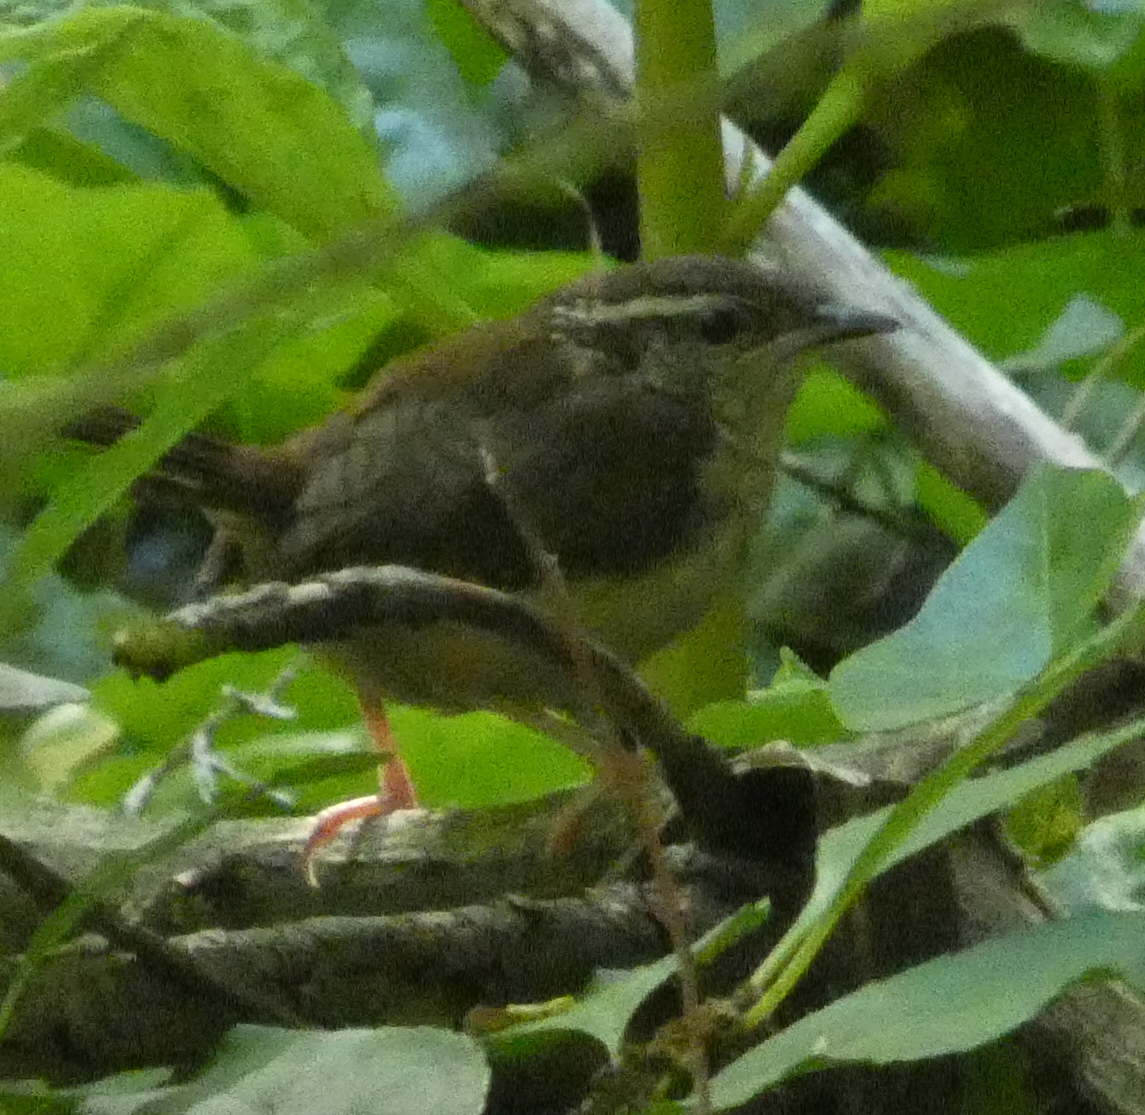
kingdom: Animalia
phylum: Chordata
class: Aves
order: Passeriformes
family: Troglodytidae
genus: Thryothorus
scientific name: Thryothorus ludovicianus
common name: Carolina wren
